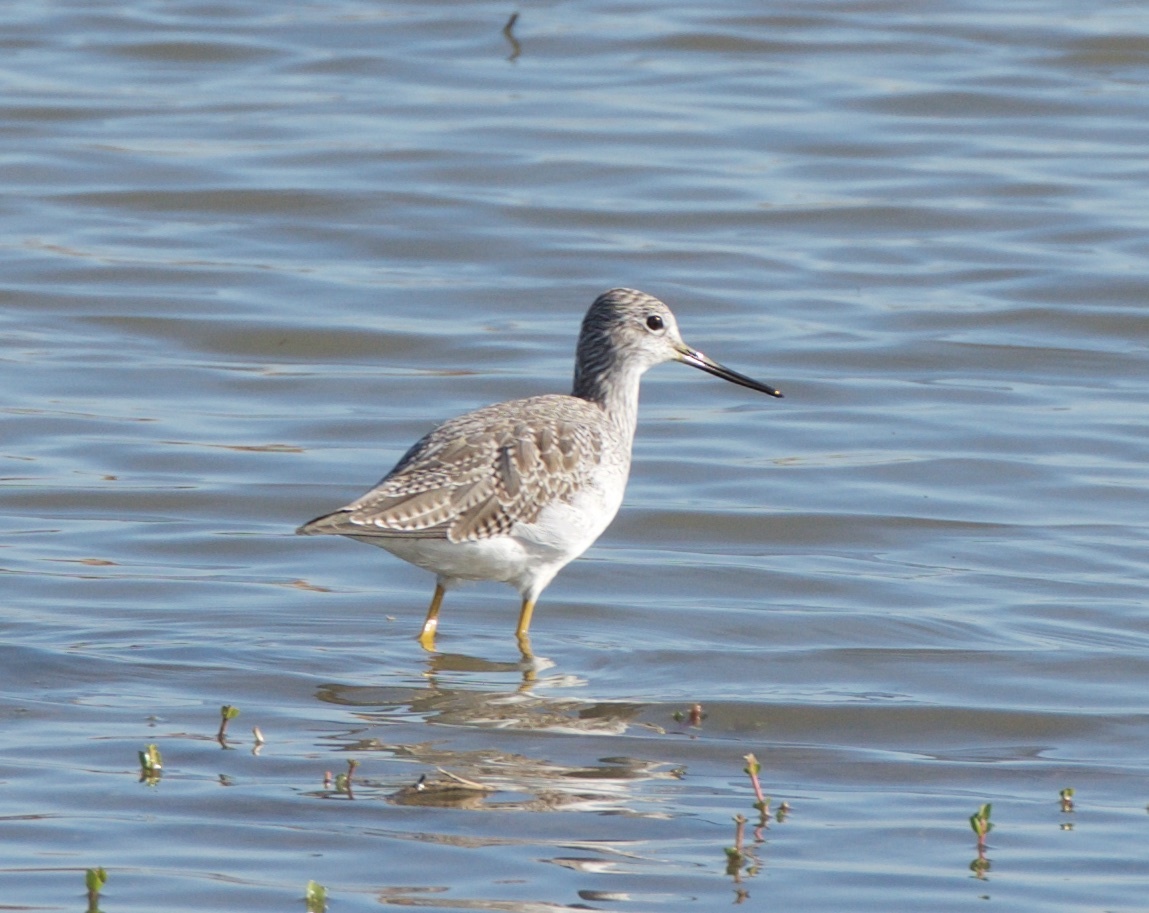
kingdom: Animalia
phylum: Chordata
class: Aves
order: Charadriiformes
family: Scolopacidae
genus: Tringa
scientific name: Tringa melanoleuca
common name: Greater yellowlegs
